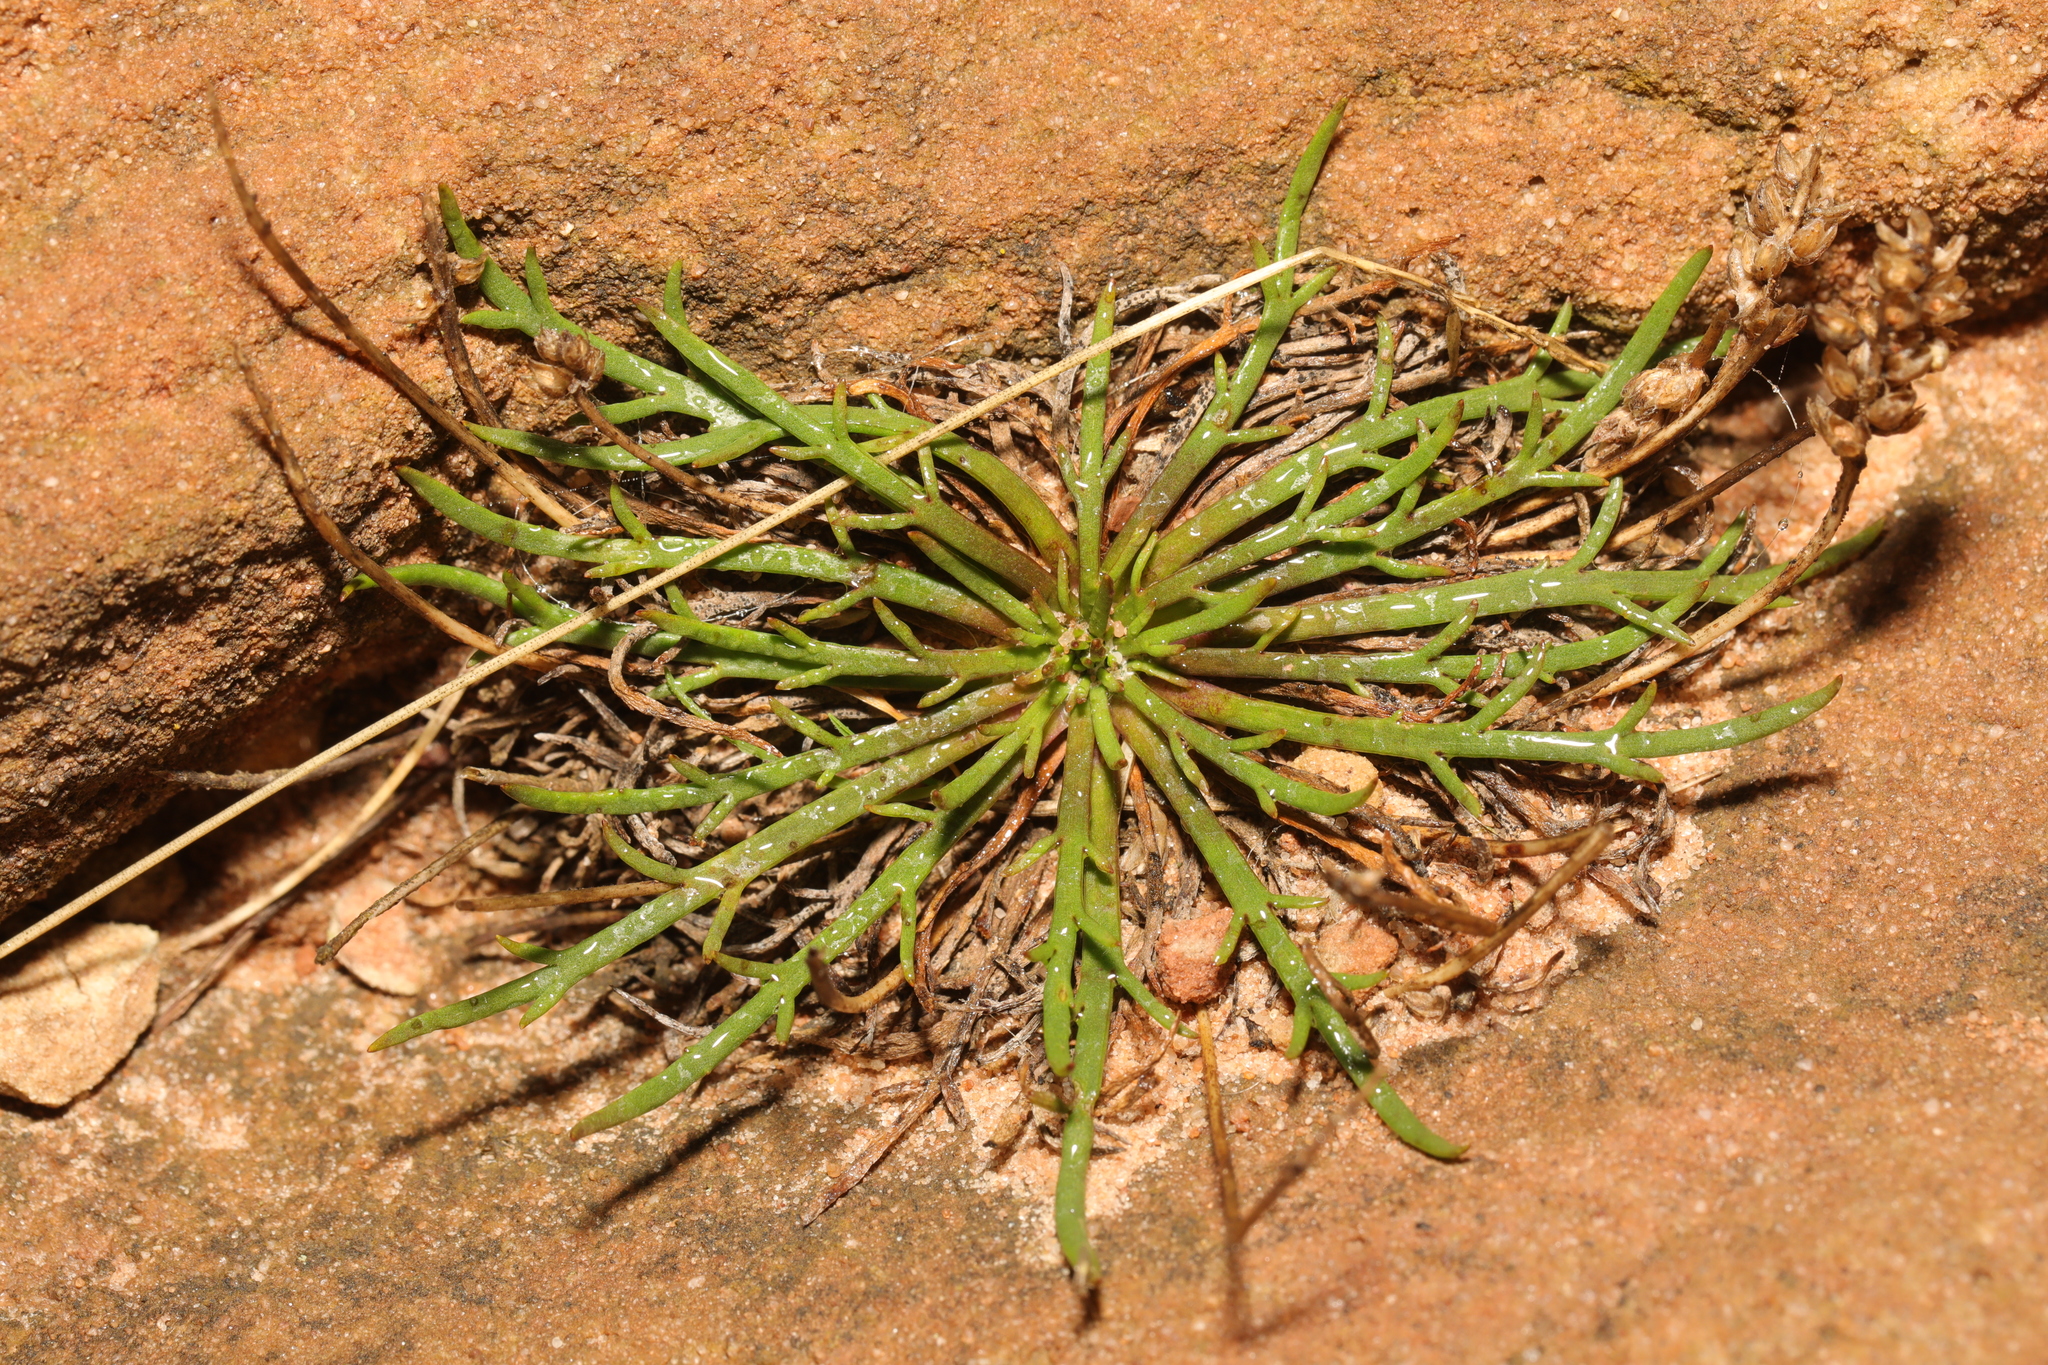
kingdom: Plantae
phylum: Tracheophyta
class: Magnoliopsida
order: Lamiales
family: Plantaginaceae
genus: Plantago
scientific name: Plantago coronopus
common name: Buck's-horn plantain
